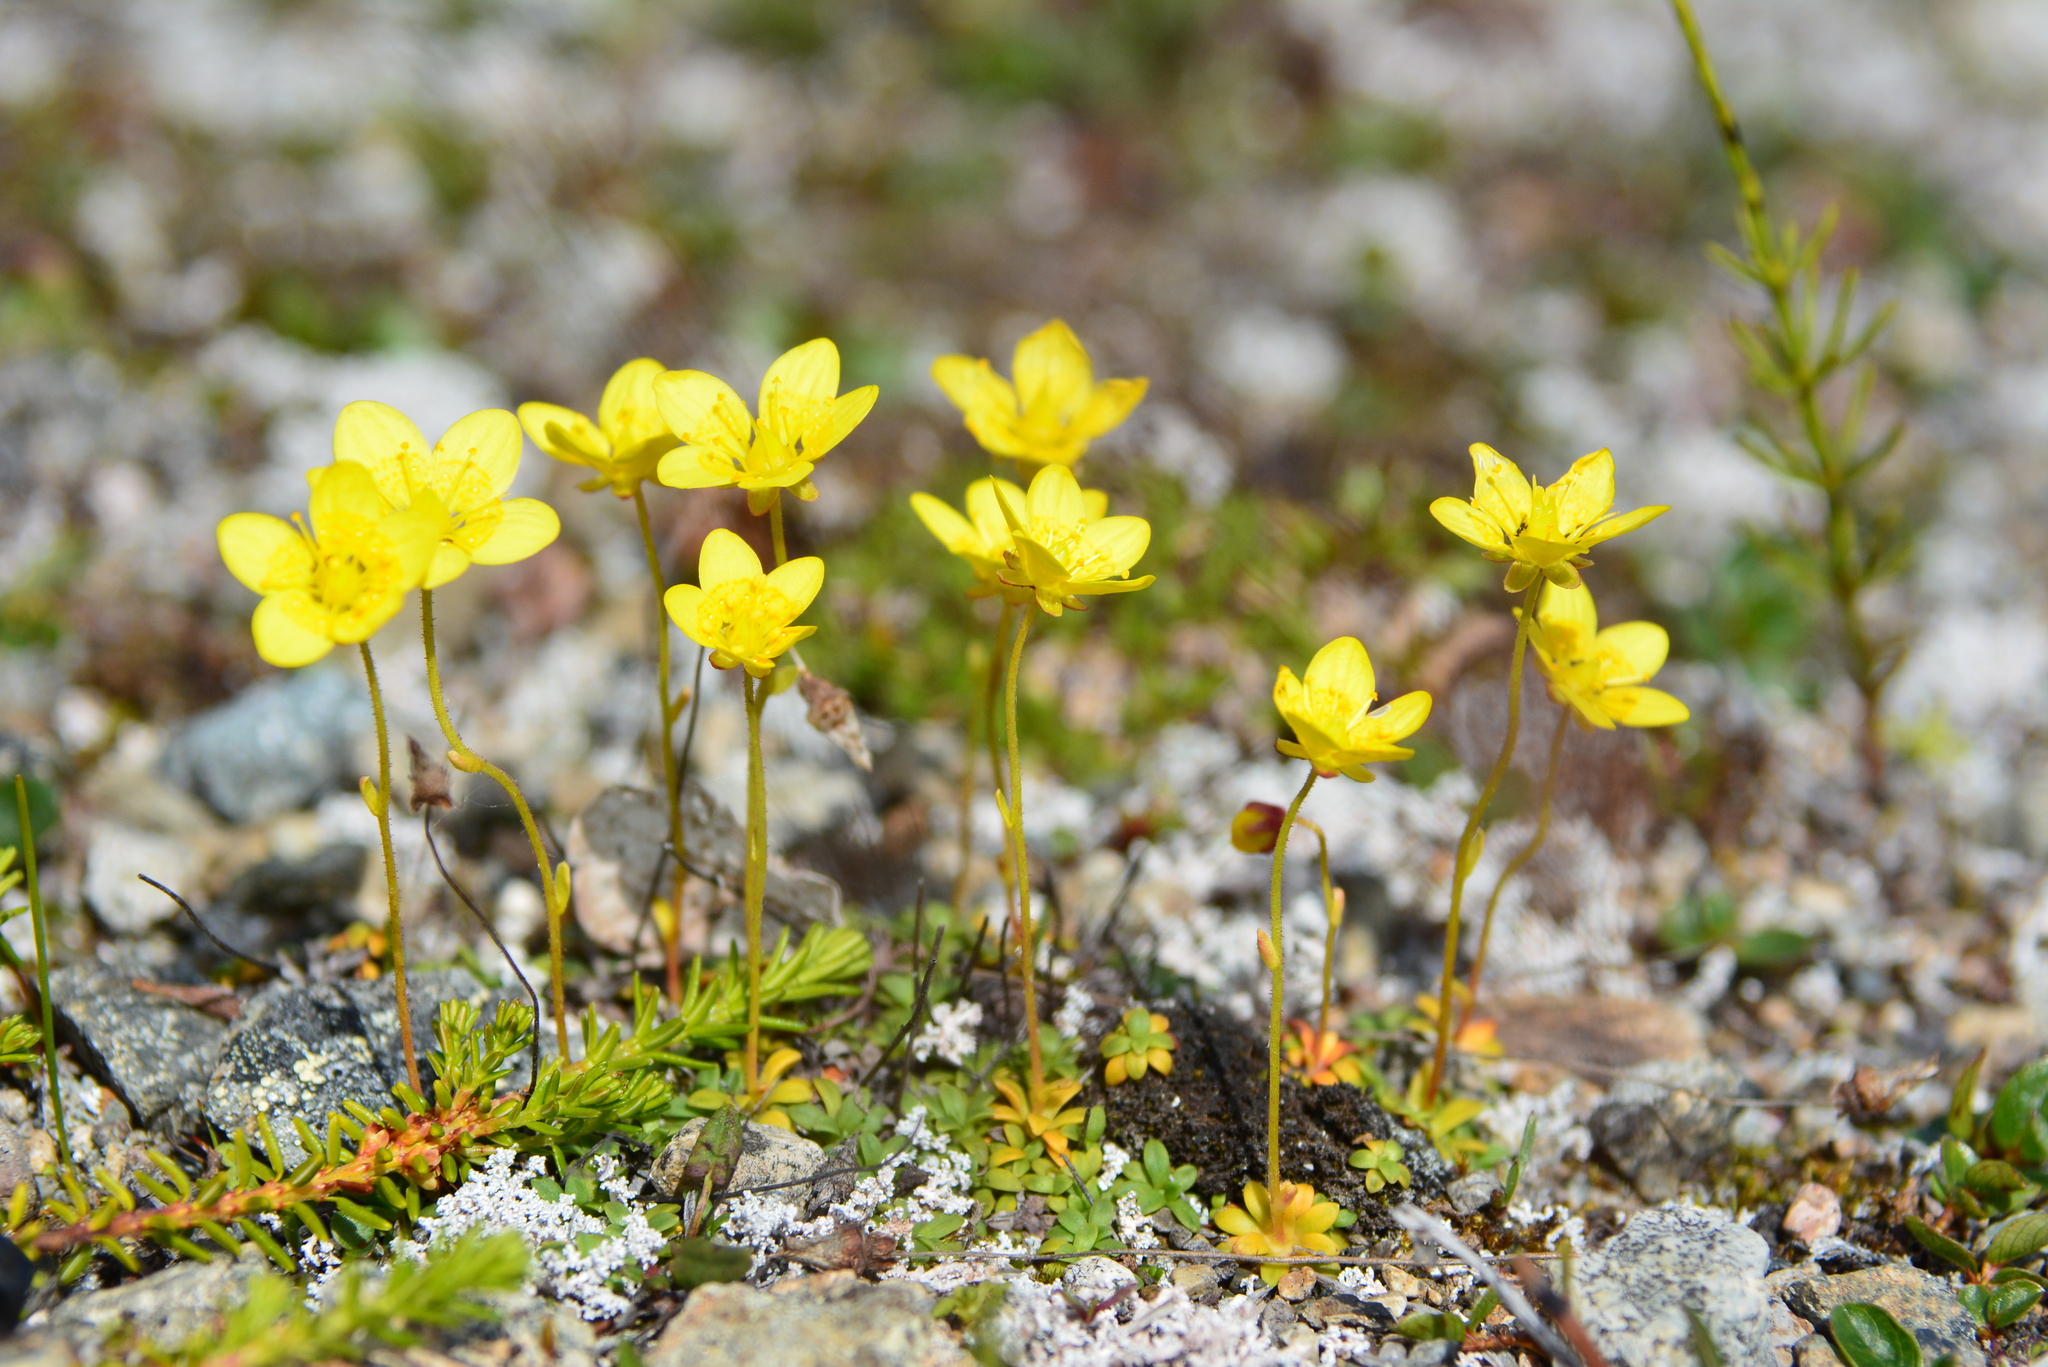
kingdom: Plantae
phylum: Tracheophyta
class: Magnoliopsida
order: Saxifragales
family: Saxifragaceae
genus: Saxifraga
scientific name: Saxifraga serpyllifolia
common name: Thyme-leaved saxifrage
